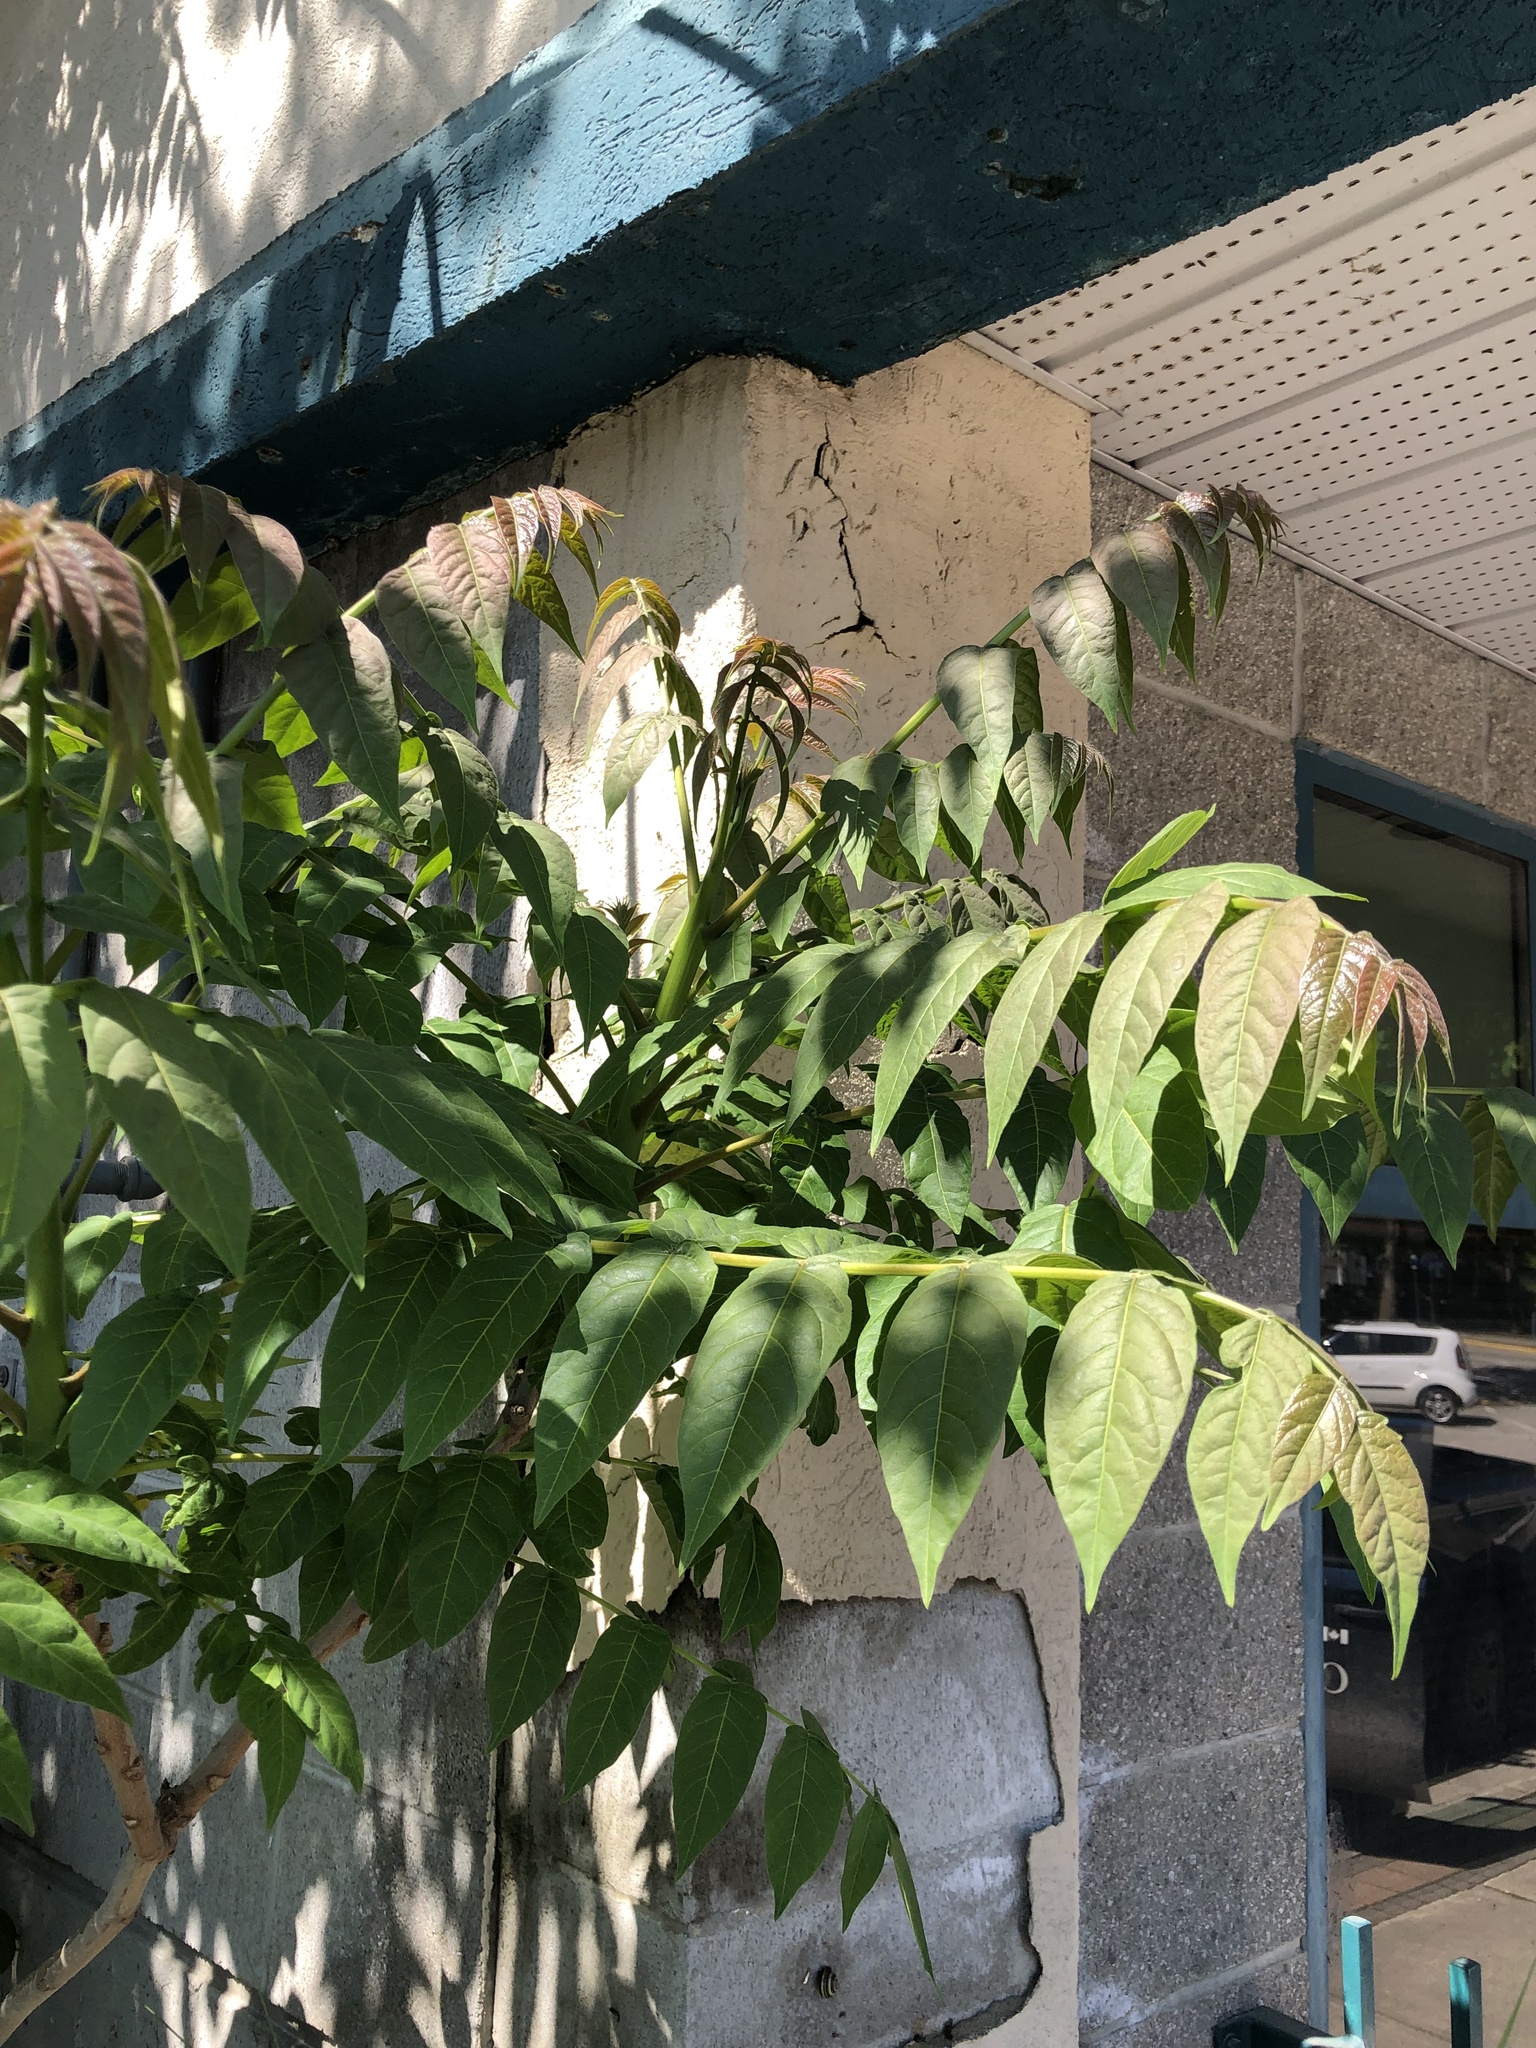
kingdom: Plantae
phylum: Tracheophyta
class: Magnoliopsida
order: Sapindales
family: Simaroubaceae
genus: Ailanthus
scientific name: Ailanthus altissima
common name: Tree-of-heaven
